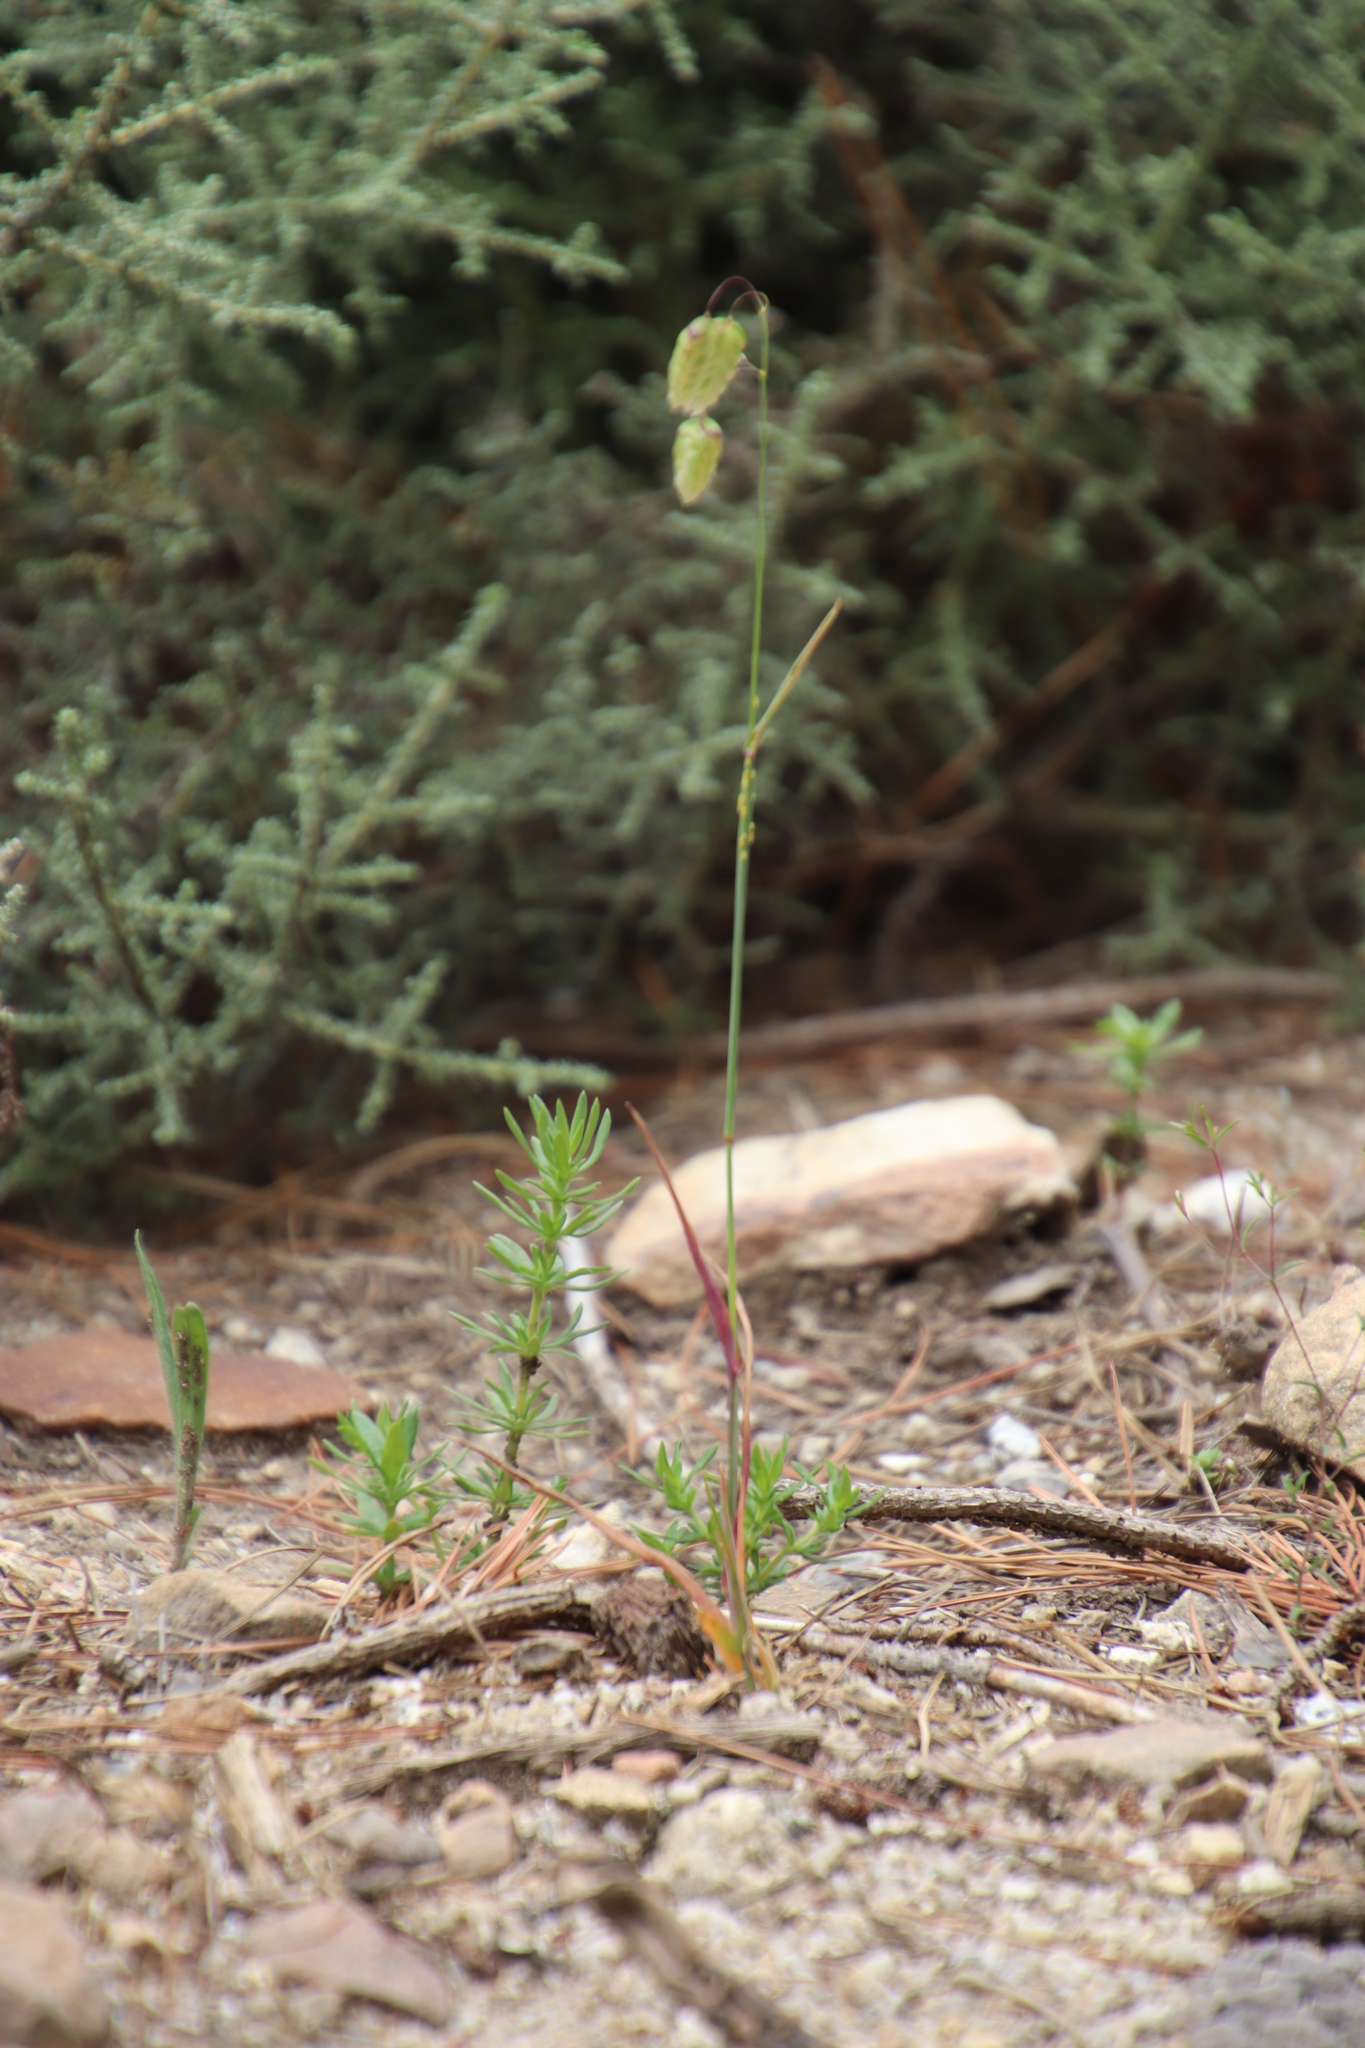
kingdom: Plantae
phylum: Tracheophyta
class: Liliopsida
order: Poales
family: Poaceae
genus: Briza
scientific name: Briza maxima
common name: Big quakinggrass
